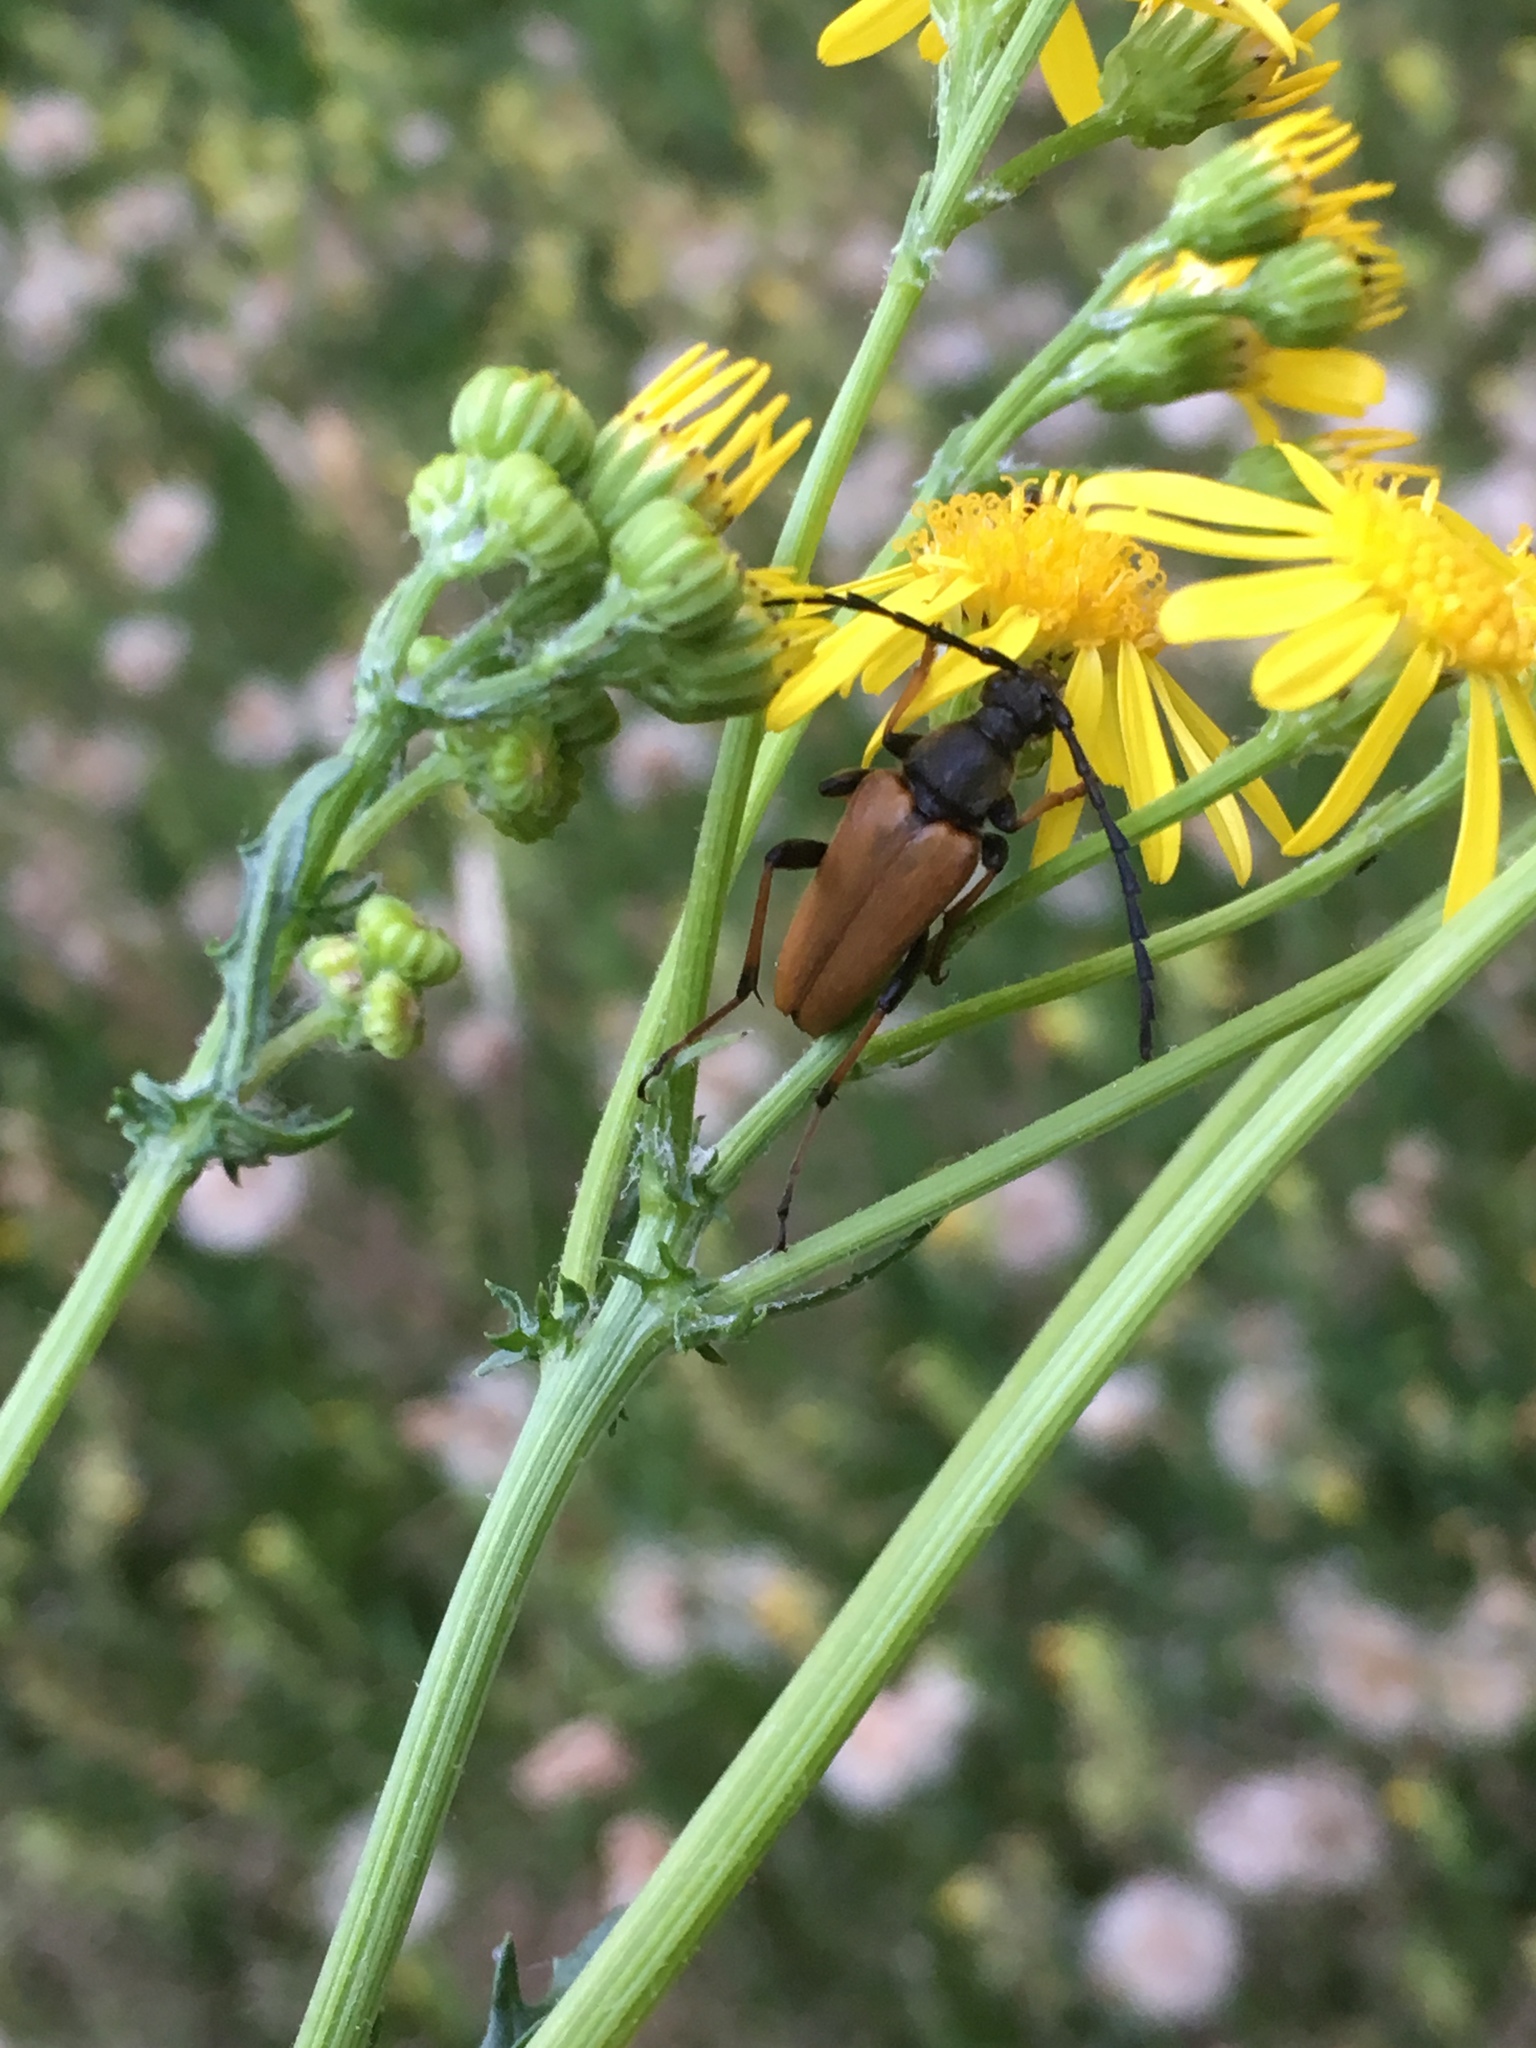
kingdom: Animalia
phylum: Arthropoda
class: Insecta
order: Coleoptera
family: Cerambycidae
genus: Stictoleptura
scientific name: Stictoleptura rubra
